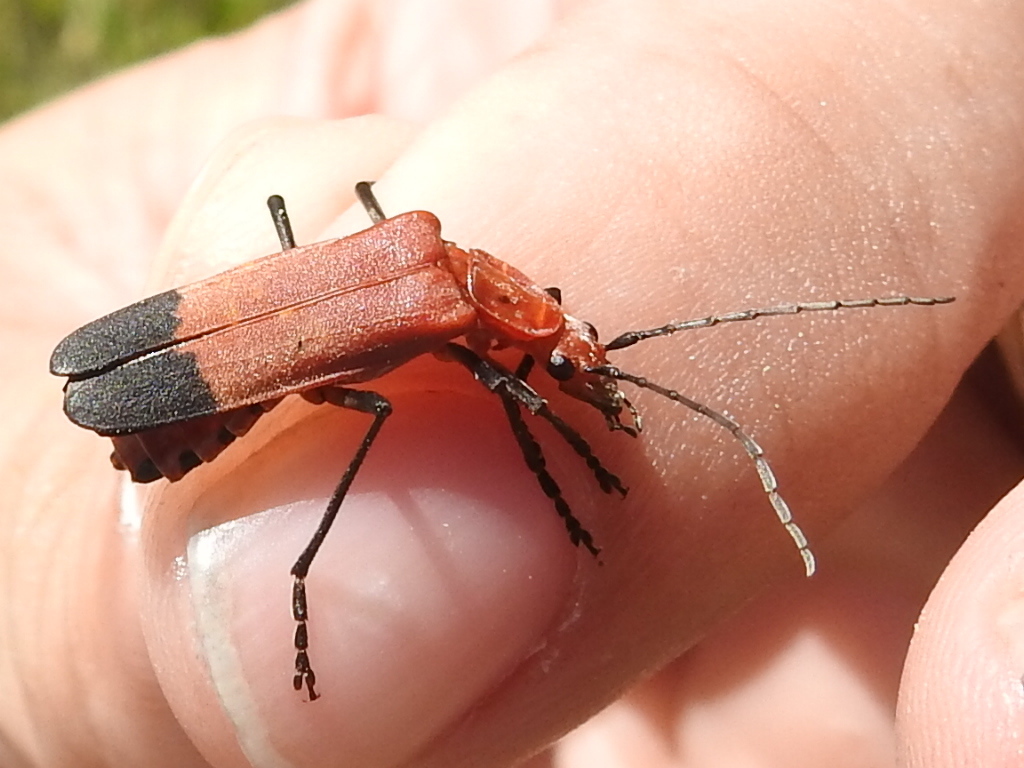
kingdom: Animalia
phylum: Arthropoda
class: Insecta
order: Coleoptera
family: Cantharidae
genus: Chauliognathus
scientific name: Chauliognathus lecontei
